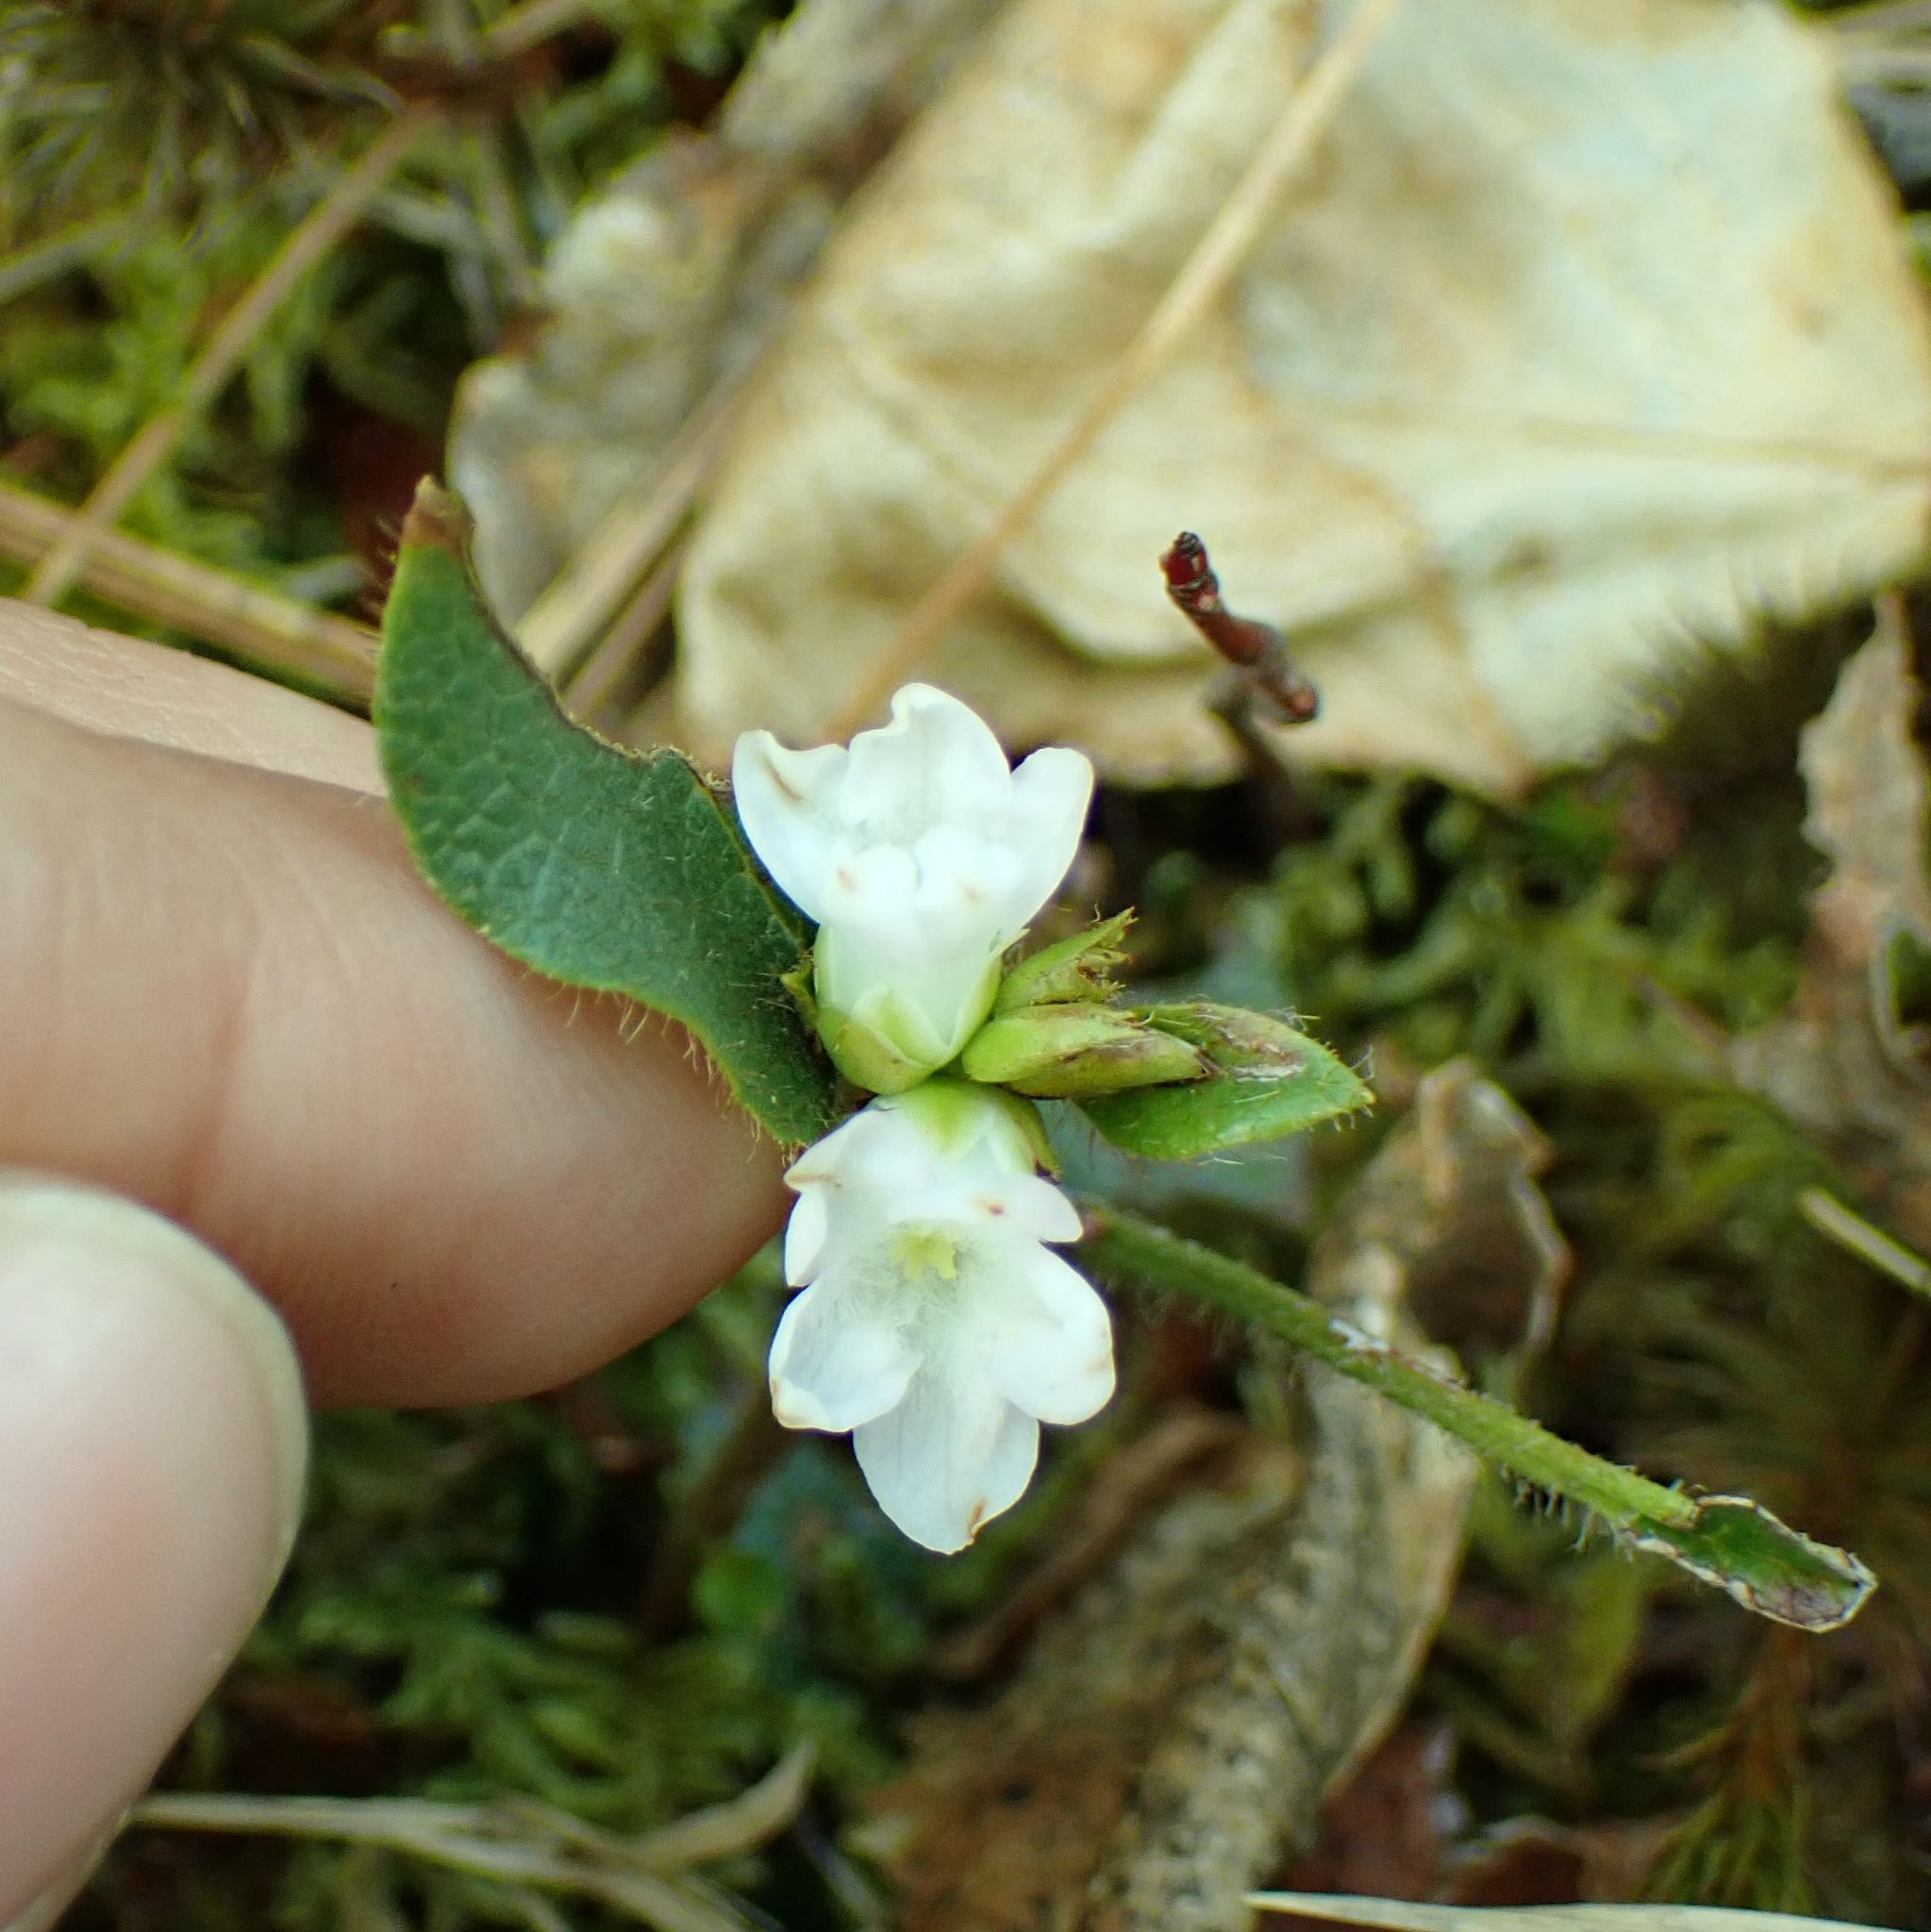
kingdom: Plantae
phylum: Tracheophyta
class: Magnoliopsida
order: Ericales
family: Ericaceae
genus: Epigaea
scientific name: Epigaea repens
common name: Gravelroot
